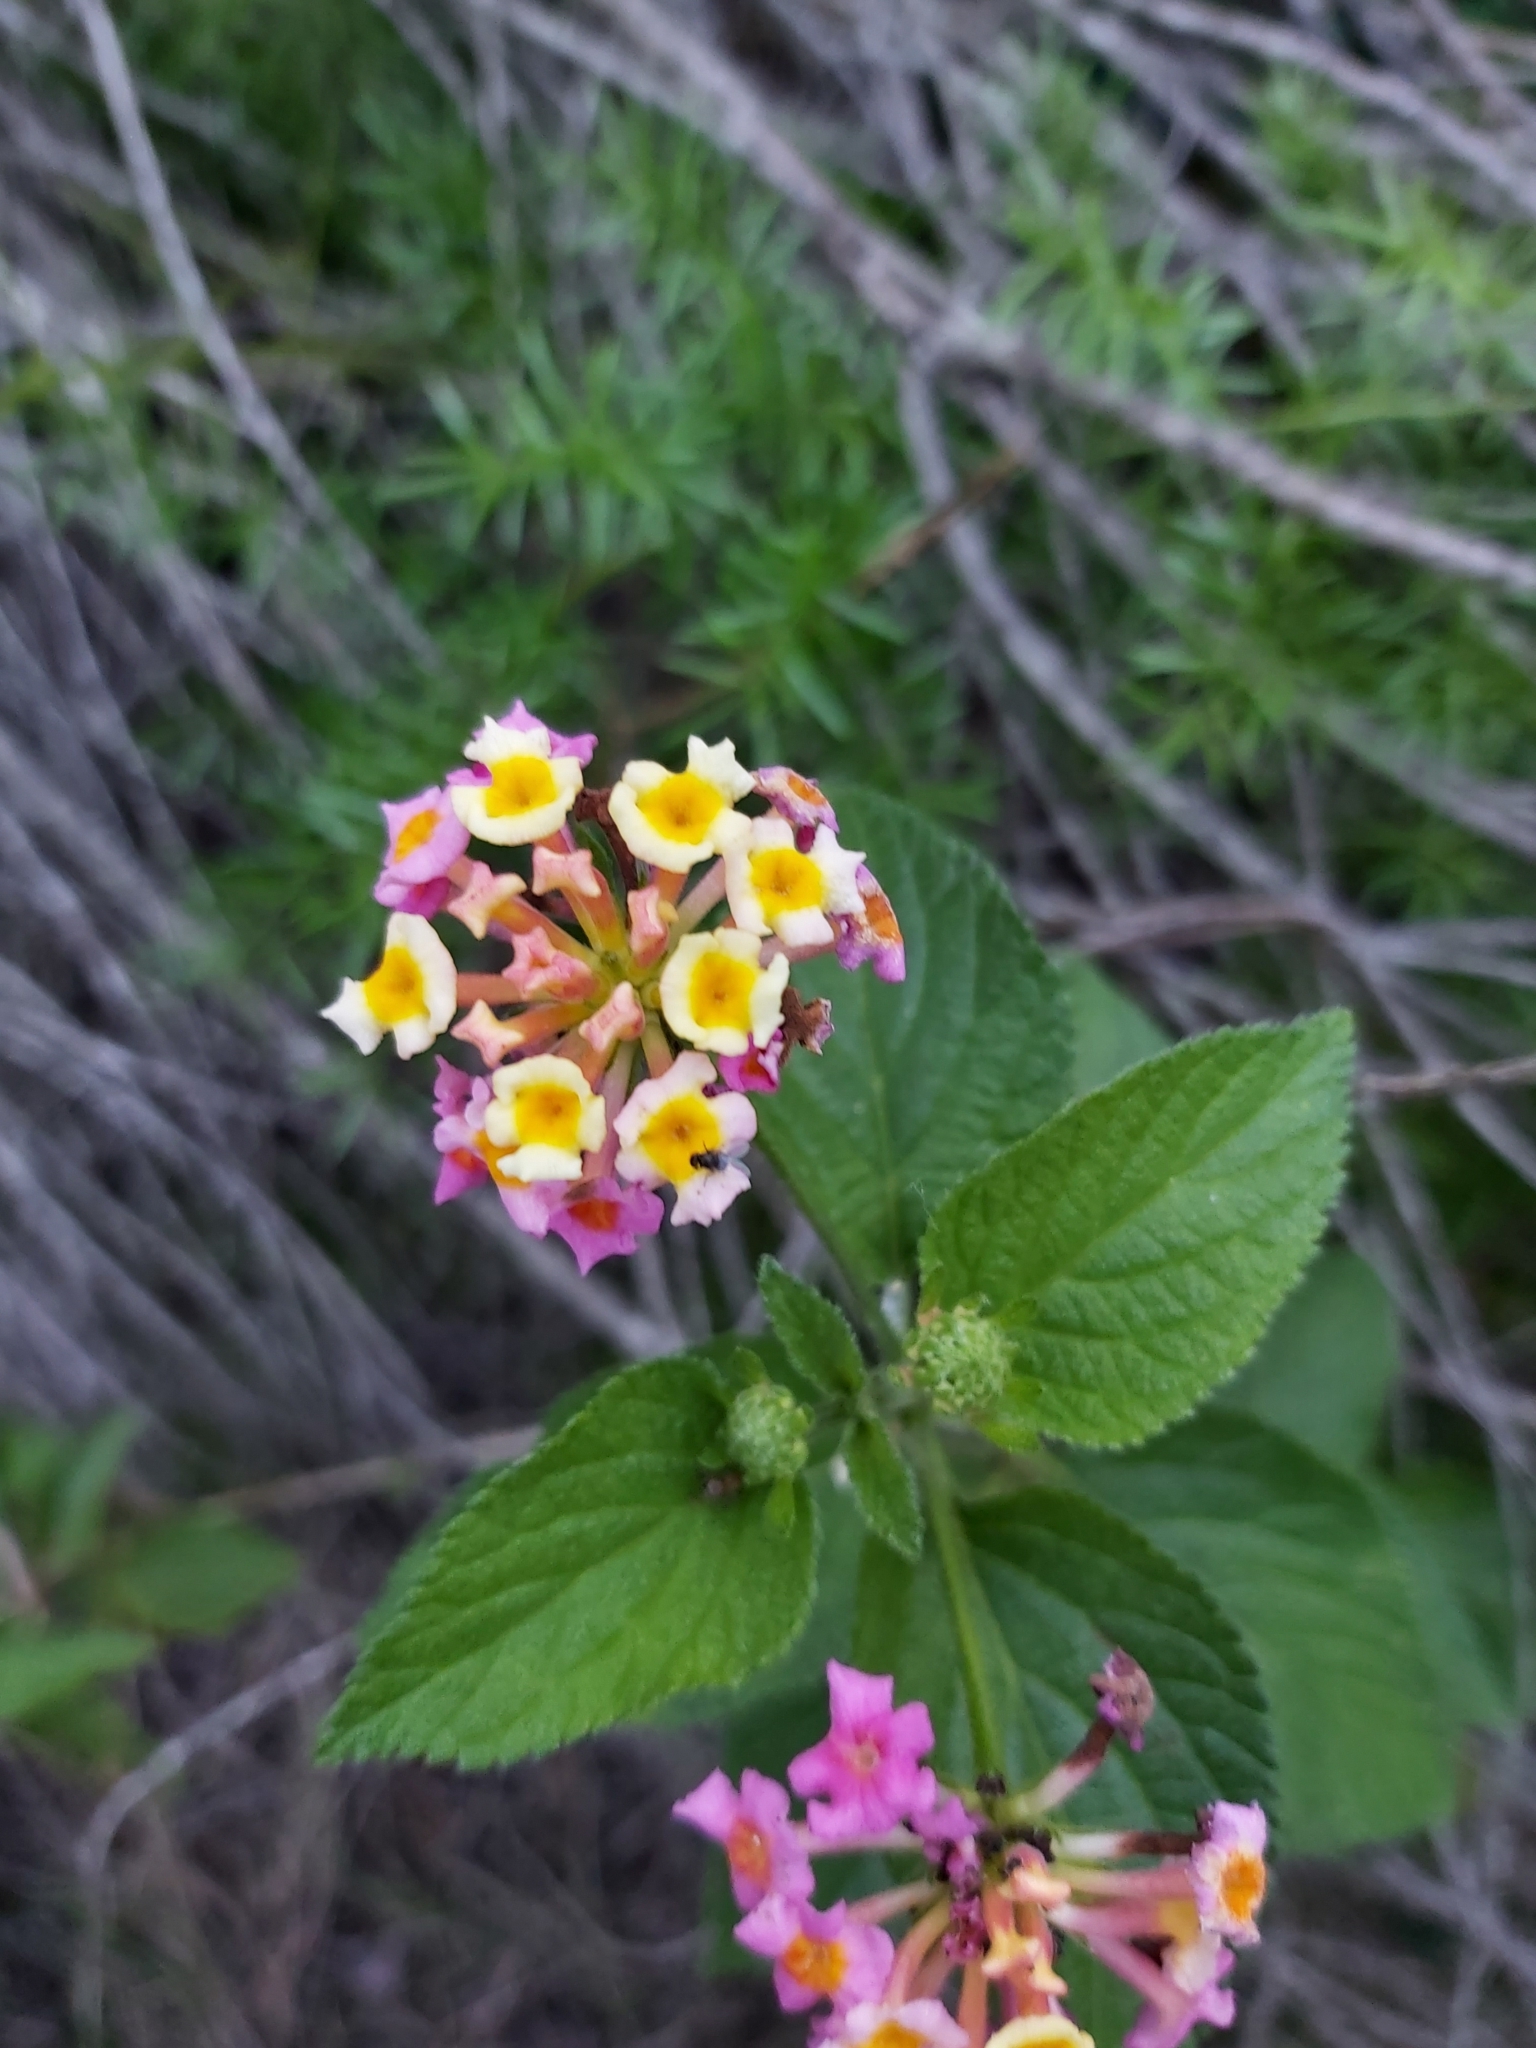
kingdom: Plantae
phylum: Tracheophyta
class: Magnoliopsida
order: Lamiales
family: Verbenaceae
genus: Lantana
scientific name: Lantana camara
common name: Lantana
